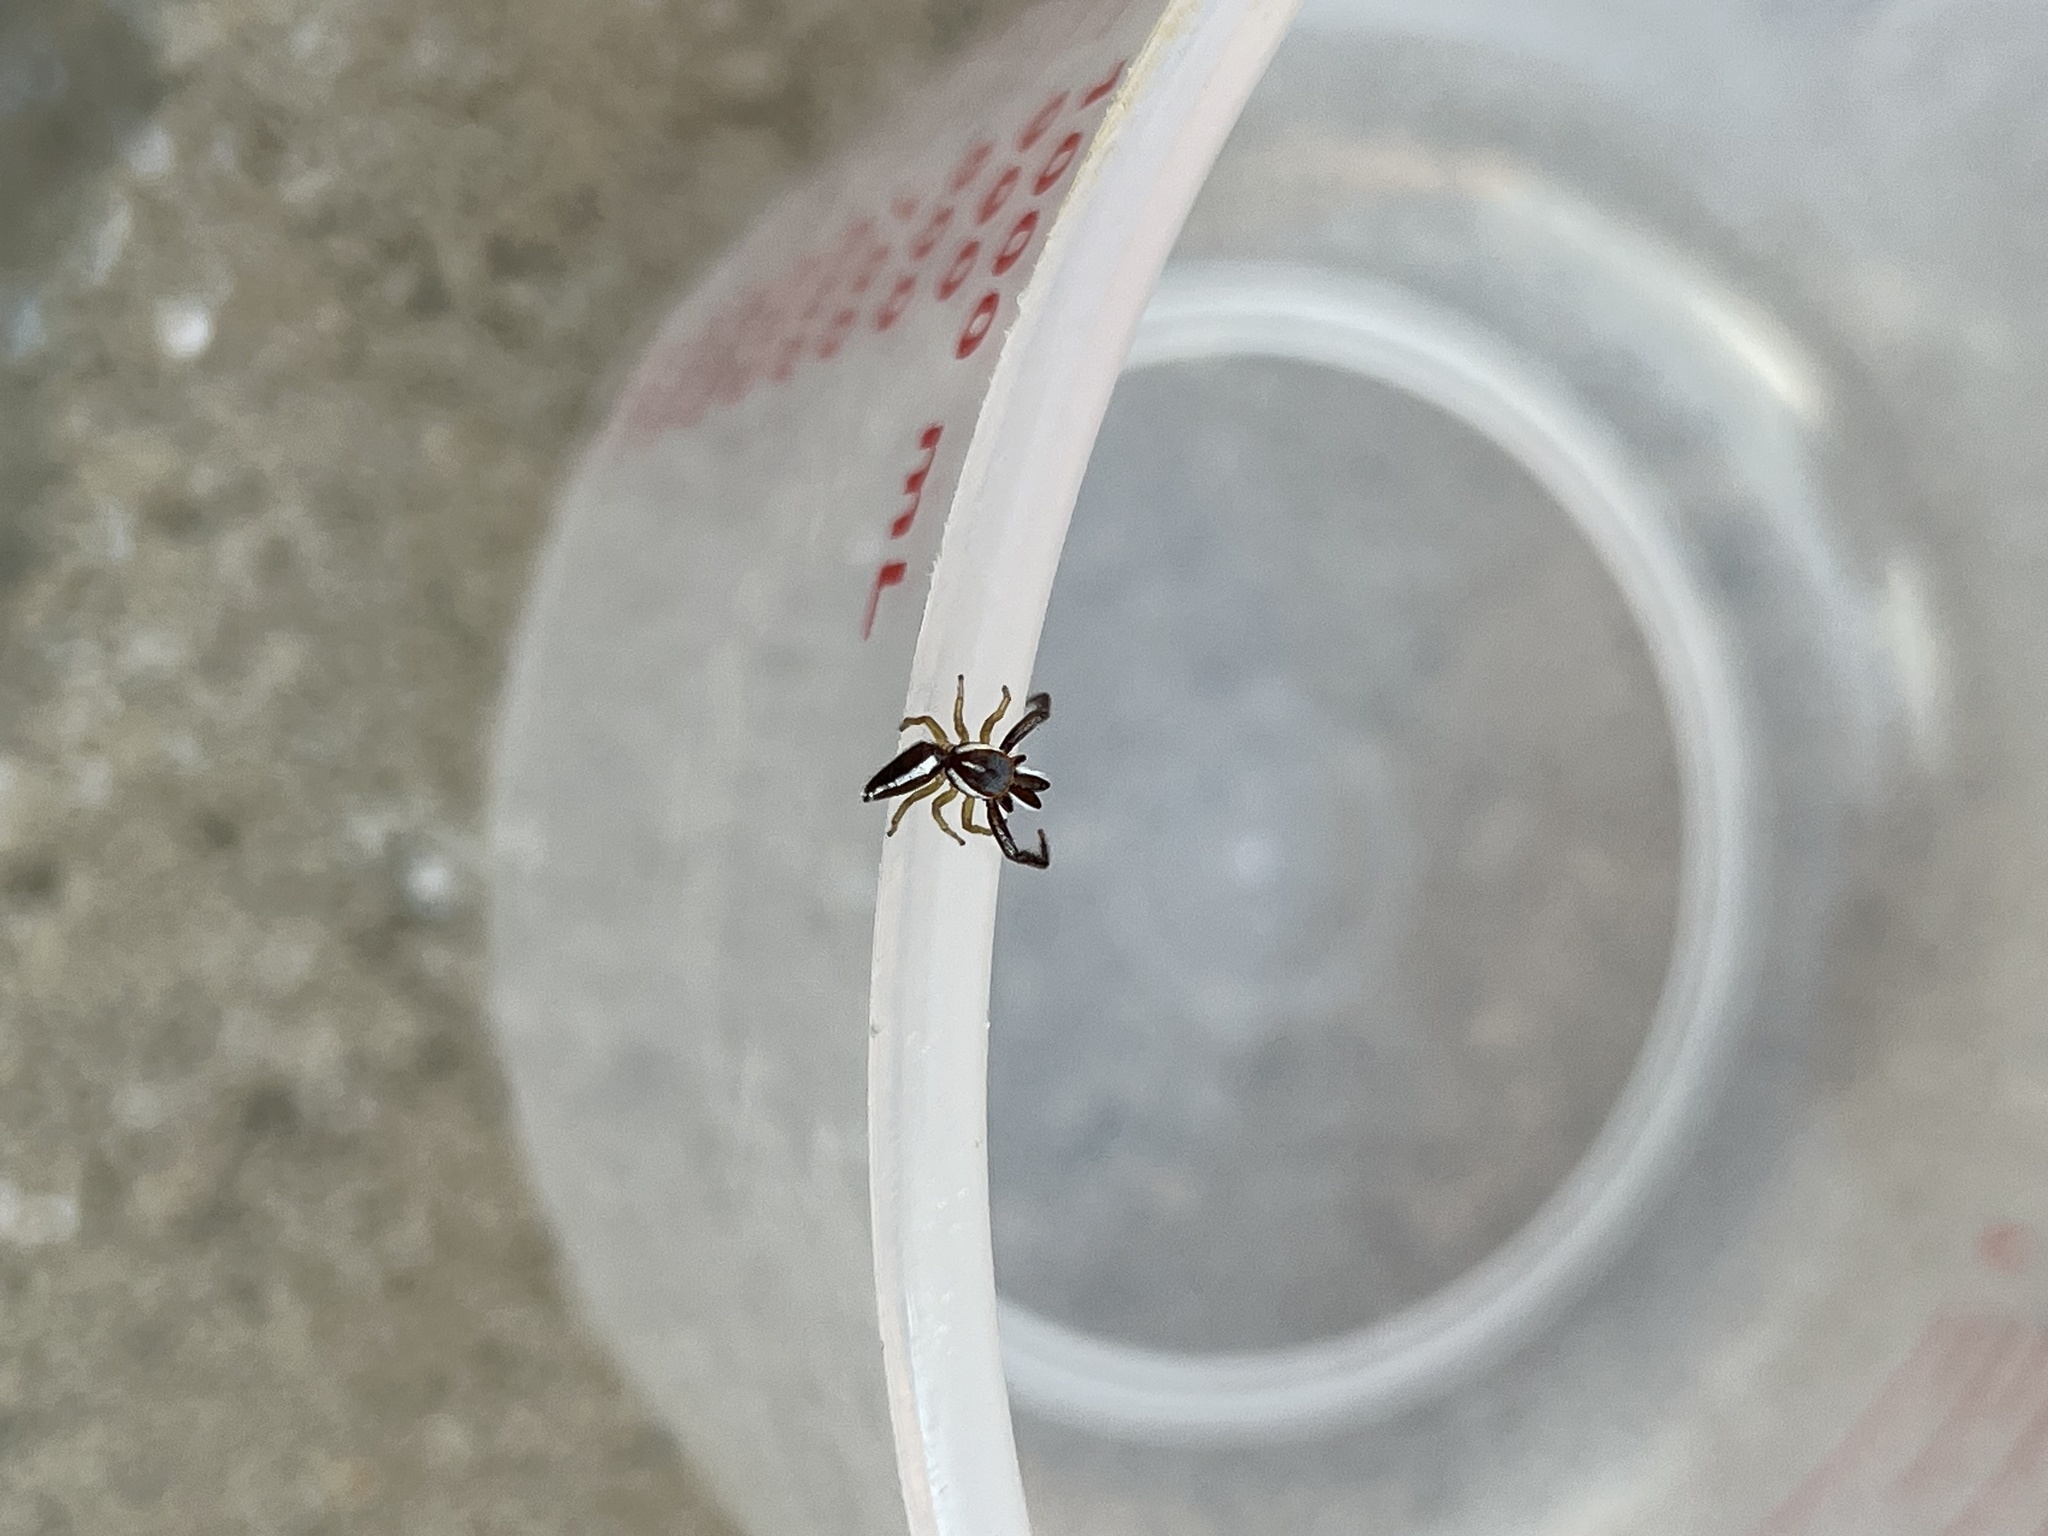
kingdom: Animalia
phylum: Arthropoda
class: Arachnida
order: Araneae
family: Salticidae
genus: Hentzia
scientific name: Hentzia palmarum
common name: Common hentz jumping spider
